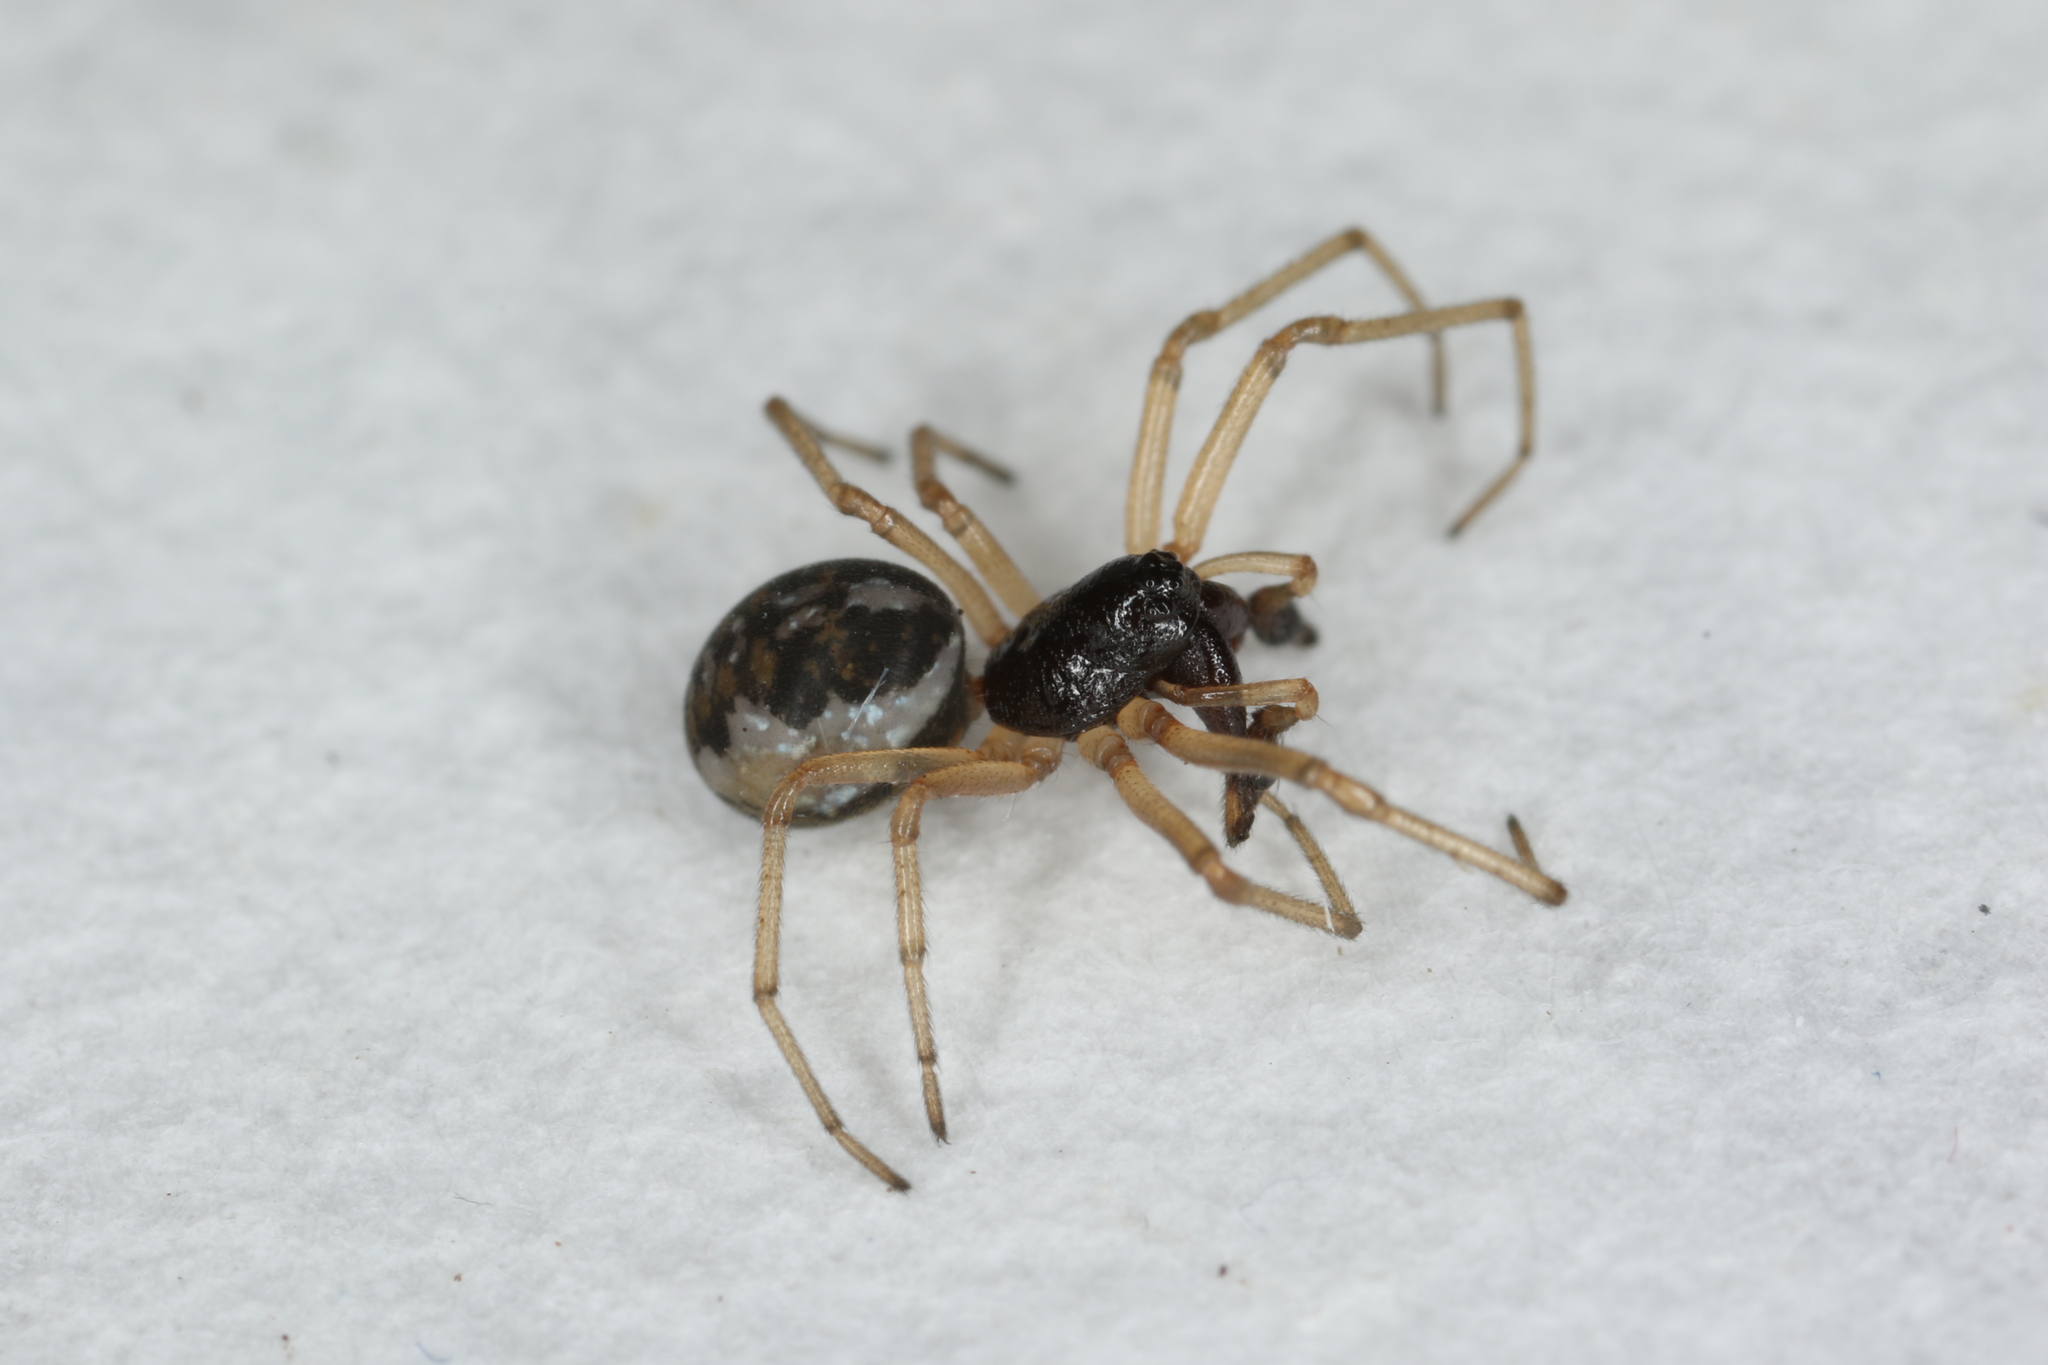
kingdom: Animalia
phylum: Arthropoda
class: Arachnida
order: Araneae
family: Tetragnathidae
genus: Pachygnatha
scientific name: Pachygnatha degeeri
